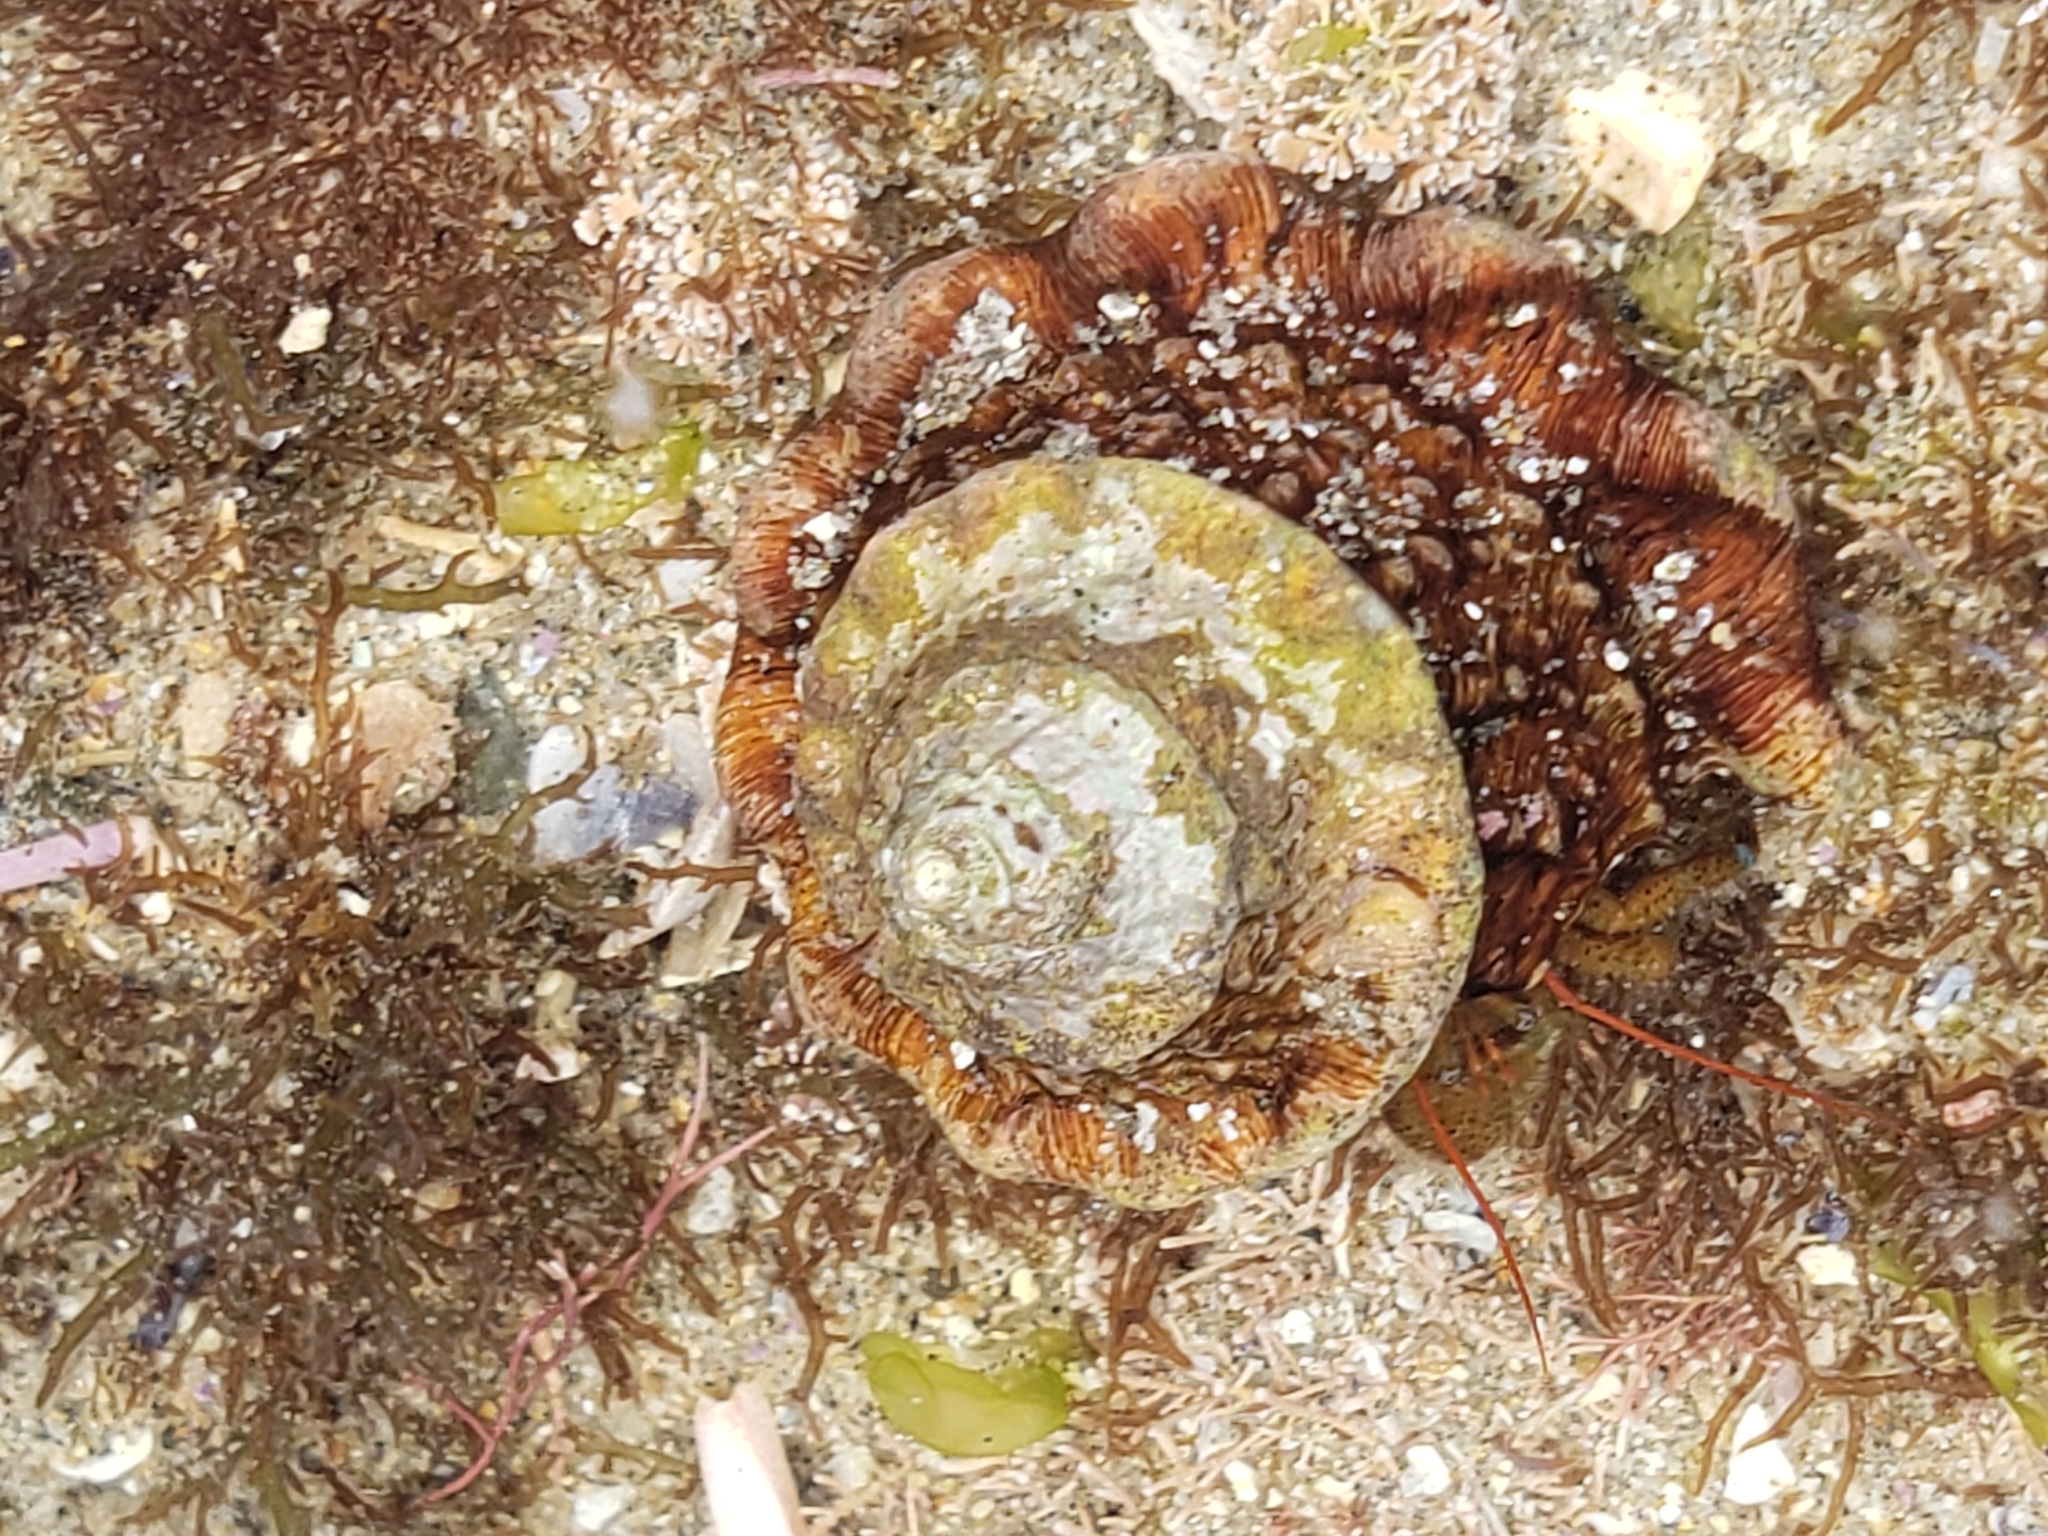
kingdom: Animalia
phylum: Mollusca
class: Gastropoda
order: Trochida
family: Turbinidae
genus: Megastraea
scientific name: Megastraea undosa
